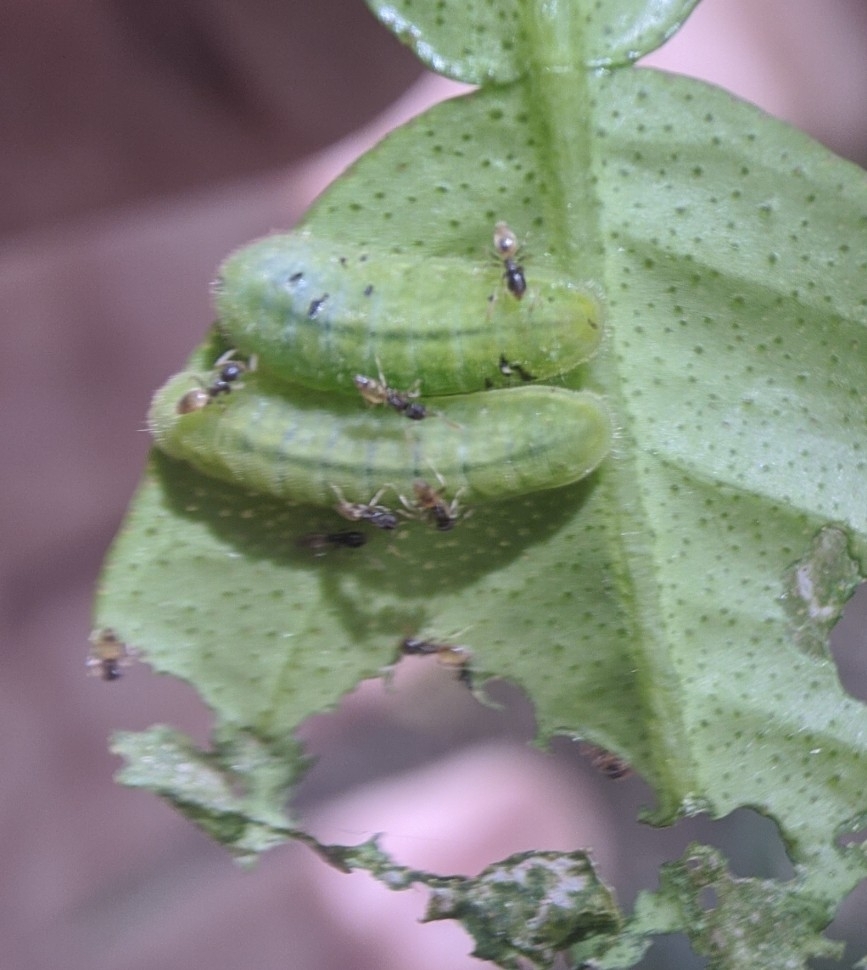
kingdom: Animalia
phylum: Arthropoda
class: Insecta
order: Lepidoptera
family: Lycaenidae
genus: Chilades
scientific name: Chilades laius
